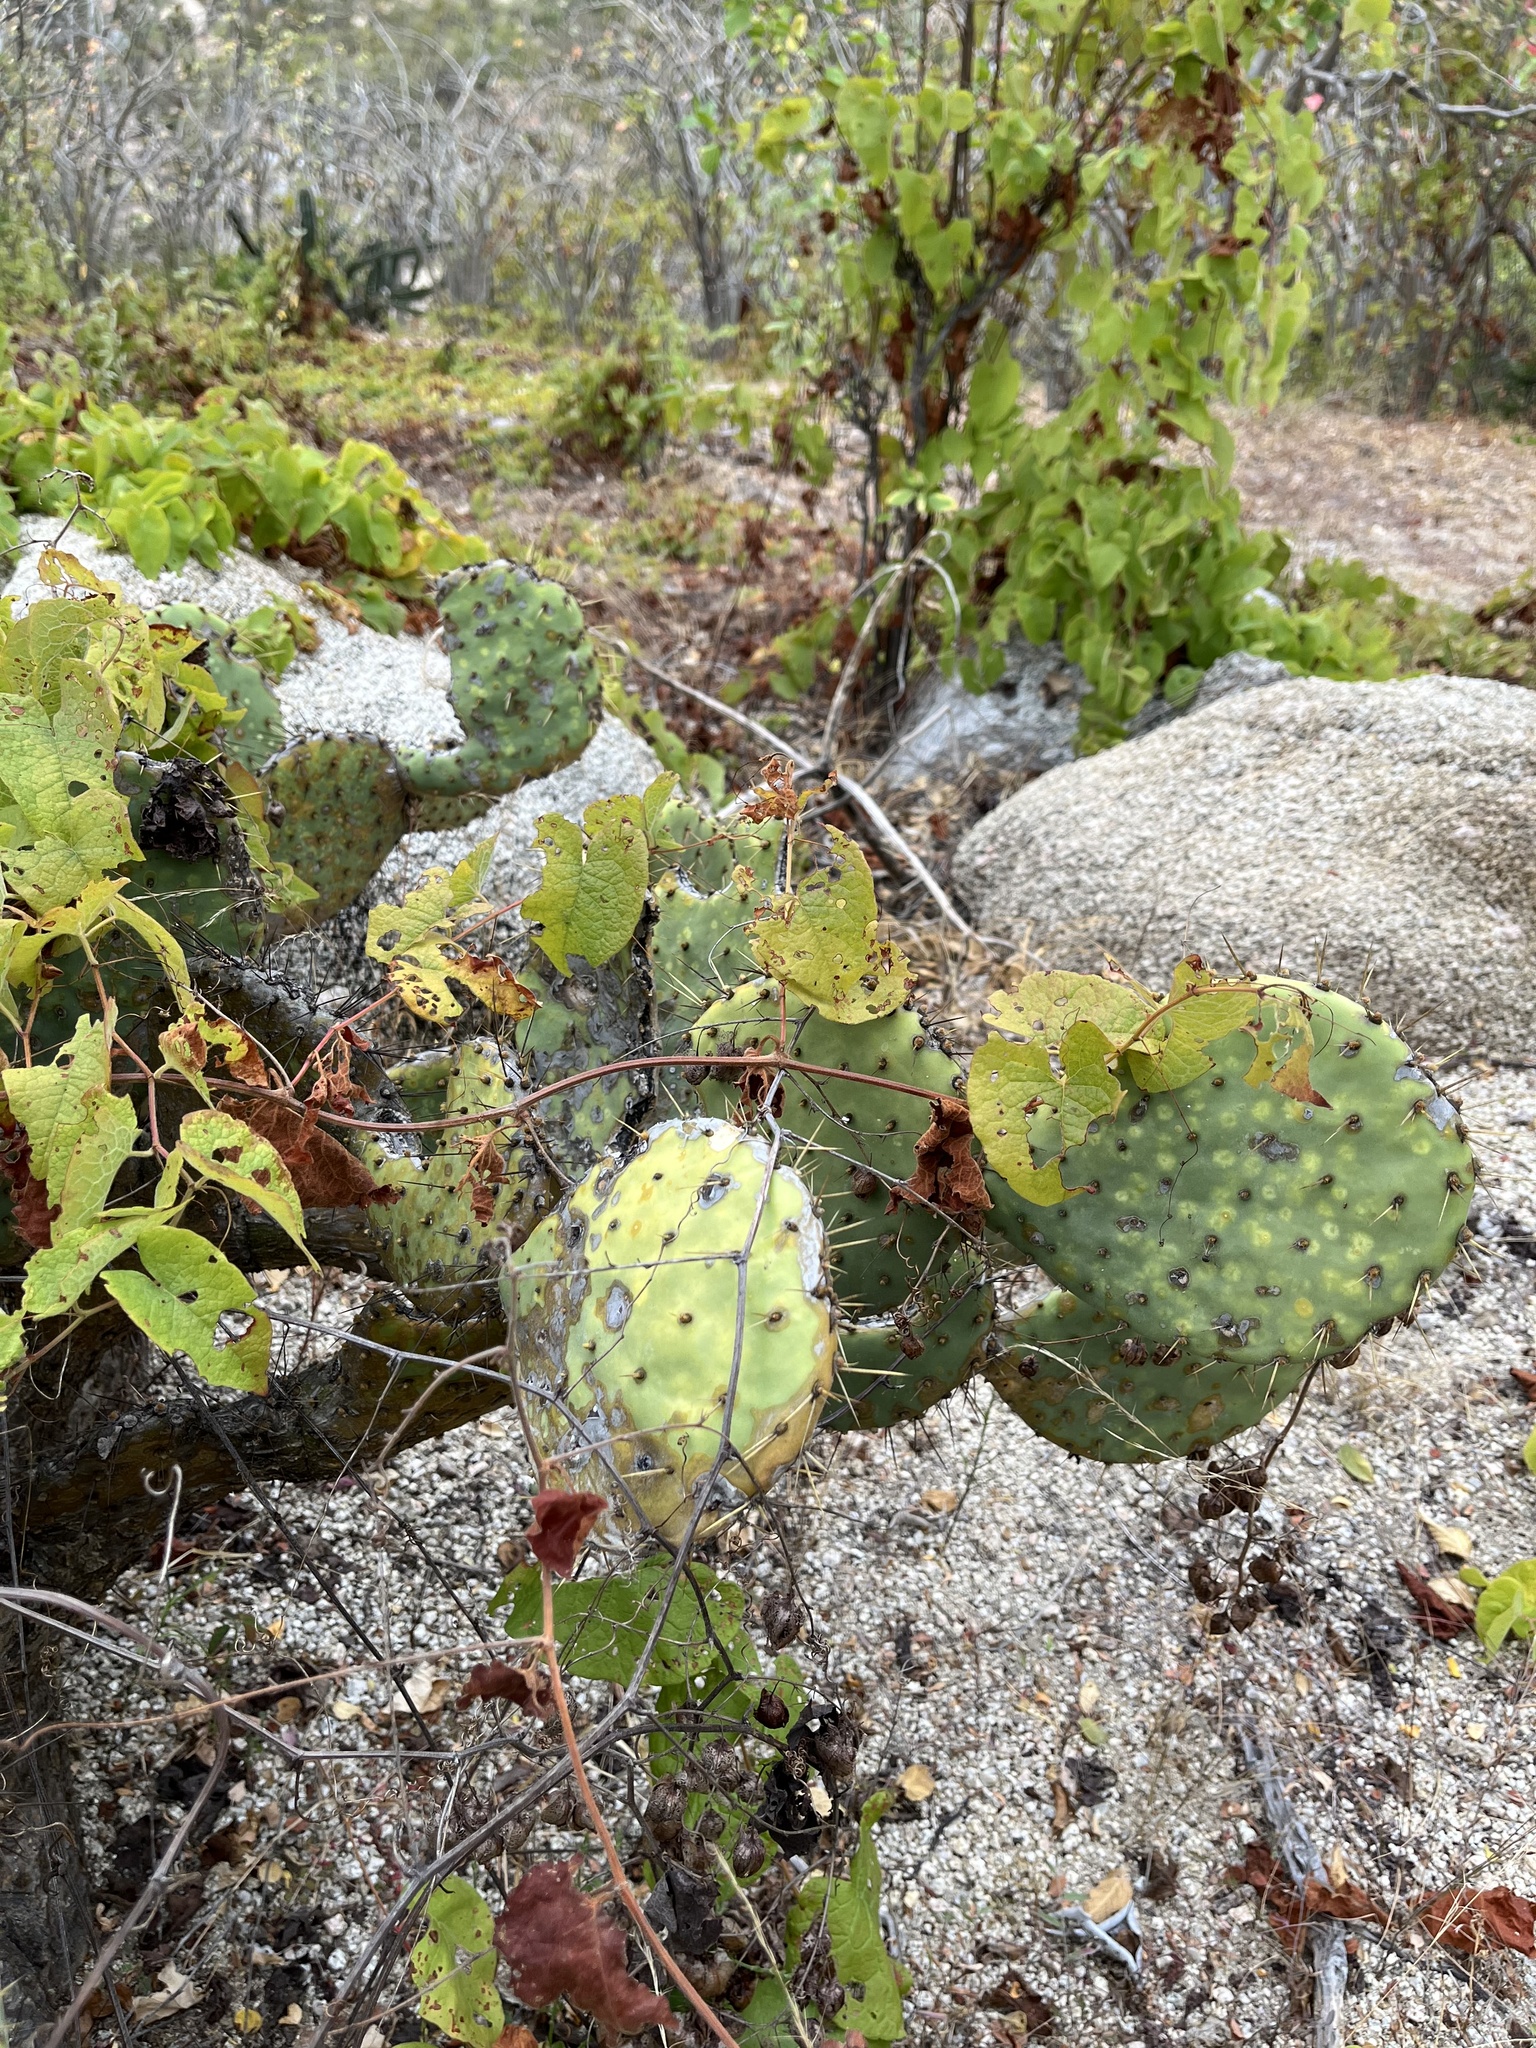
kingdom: Plantae
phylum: Tracheophyta
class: Magnoliopsida
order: Caryophyllales
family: Cactaceae
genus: Opuntia
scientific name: Opuntia caboensis
